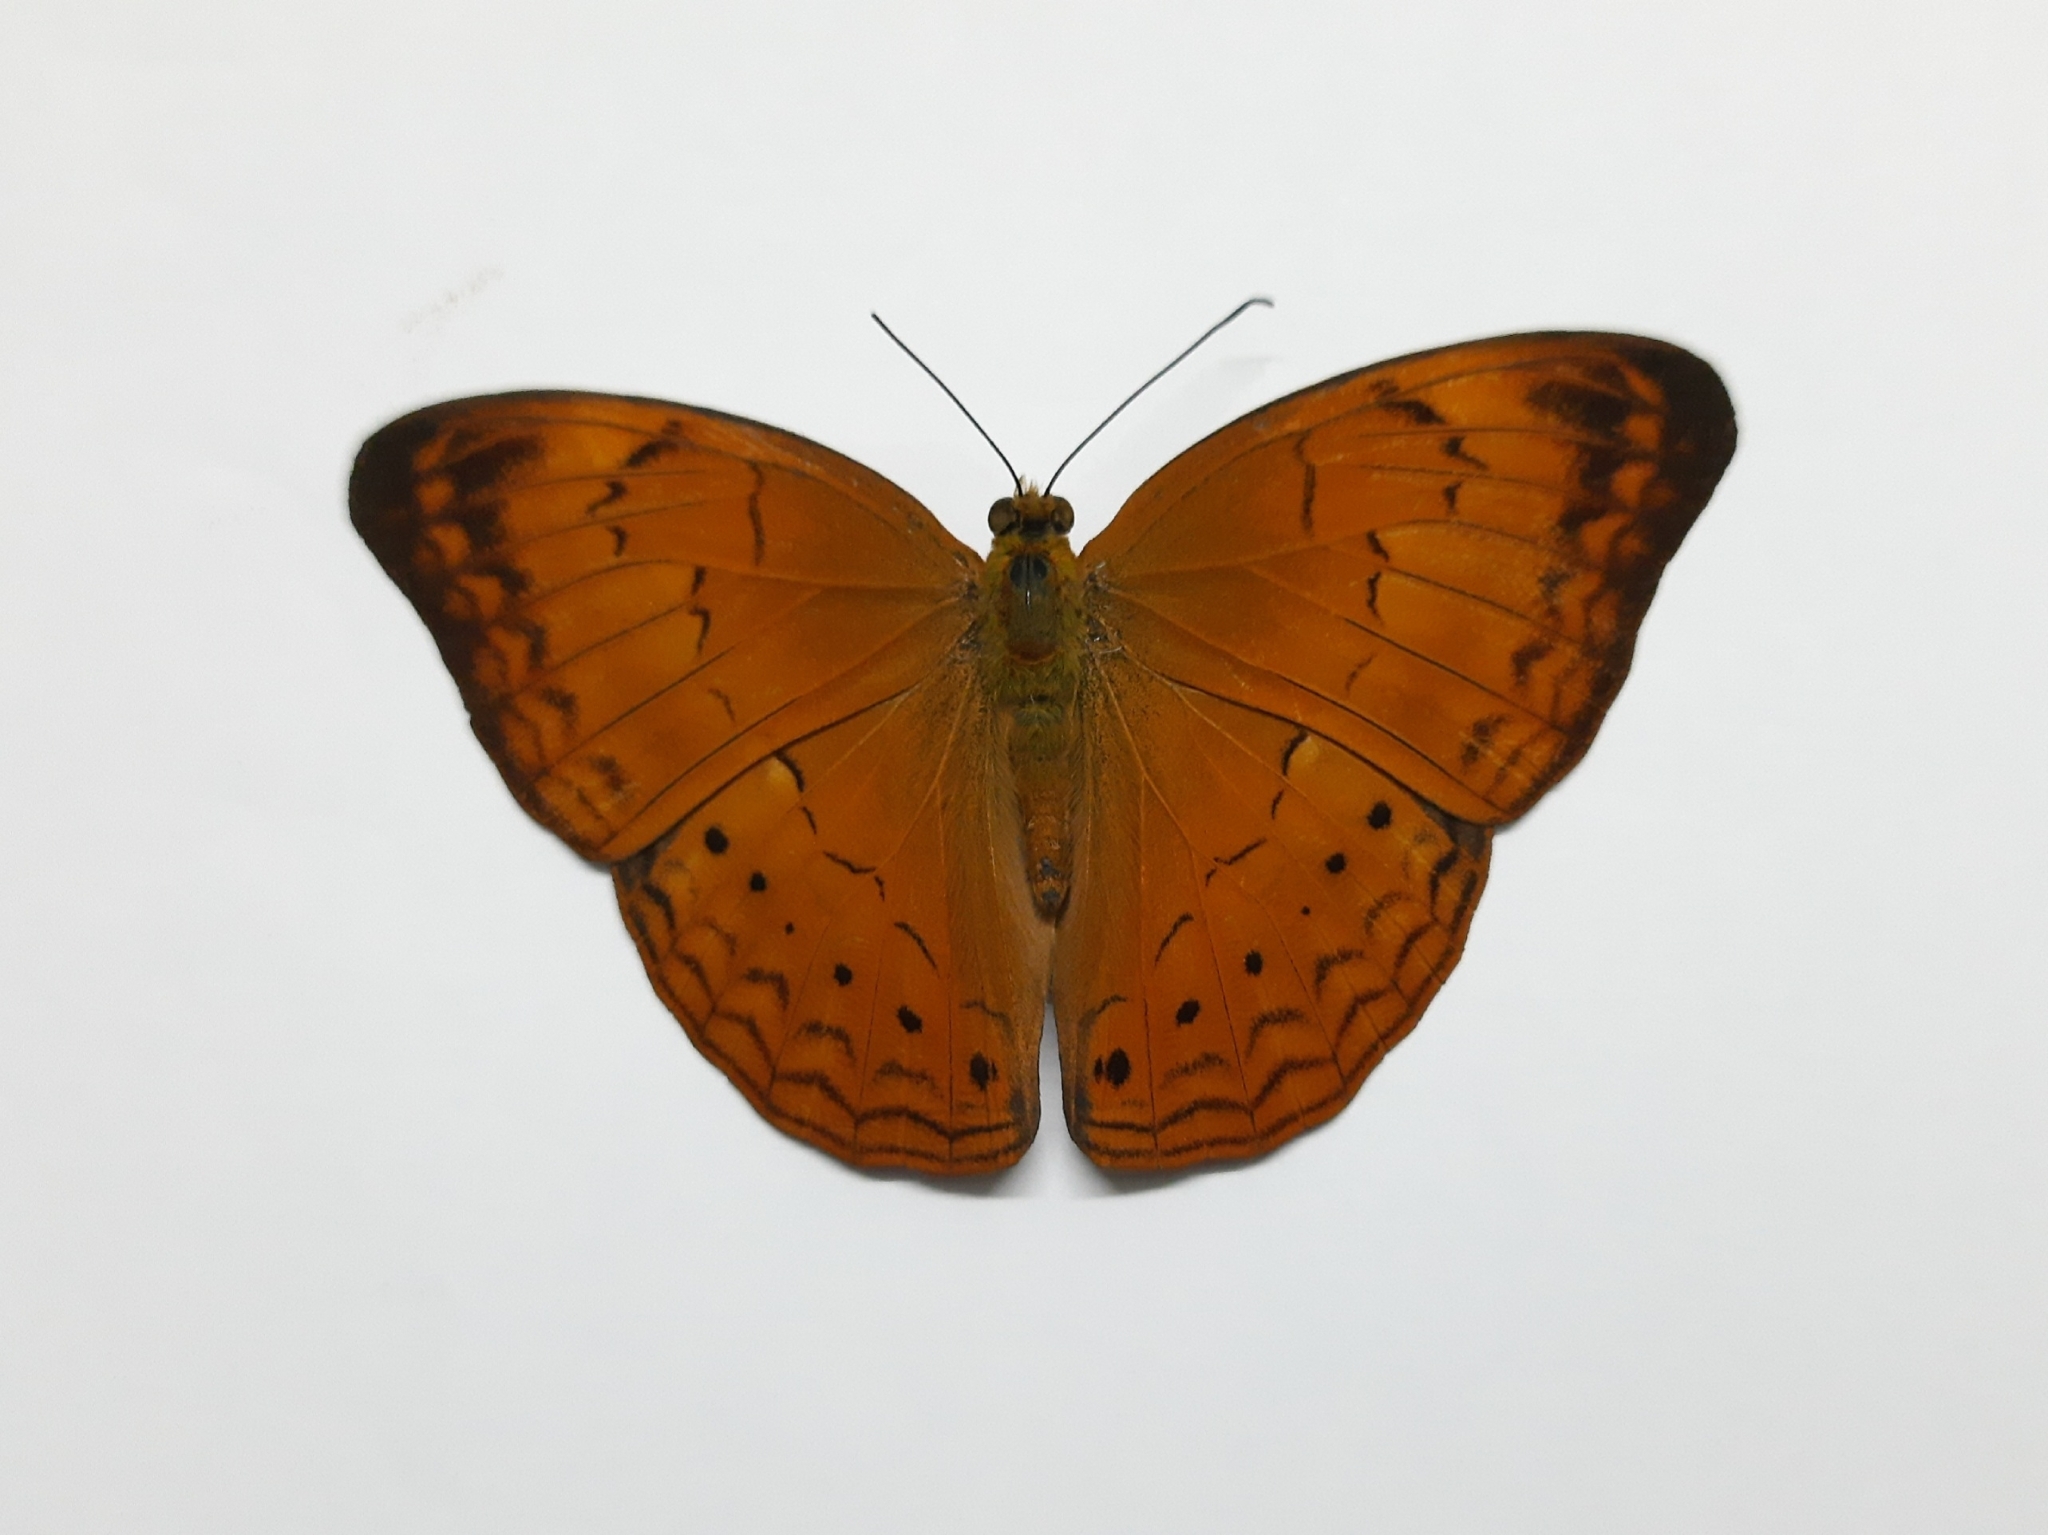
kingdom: Animalia
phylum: Arthropoda
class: Insecta
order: Lepidoptera
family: Nymphalidae
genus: Cirrochroa
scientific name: Cirrochroa thais
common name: Tamil yeoman
